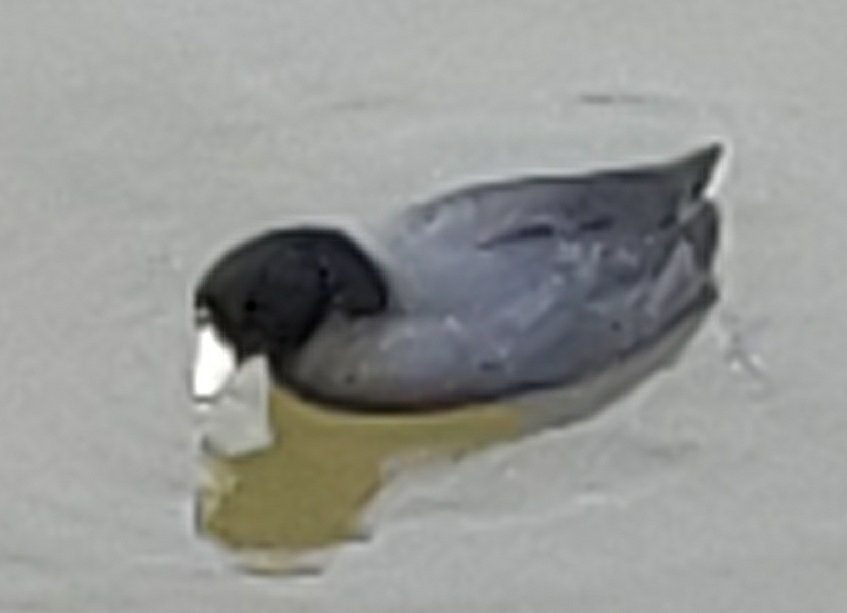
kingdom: Animalia
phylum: Chordata
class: Aves
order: Gruiformes
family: Rallidae
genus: Fulica
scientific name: Fulica americana
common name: American coot
